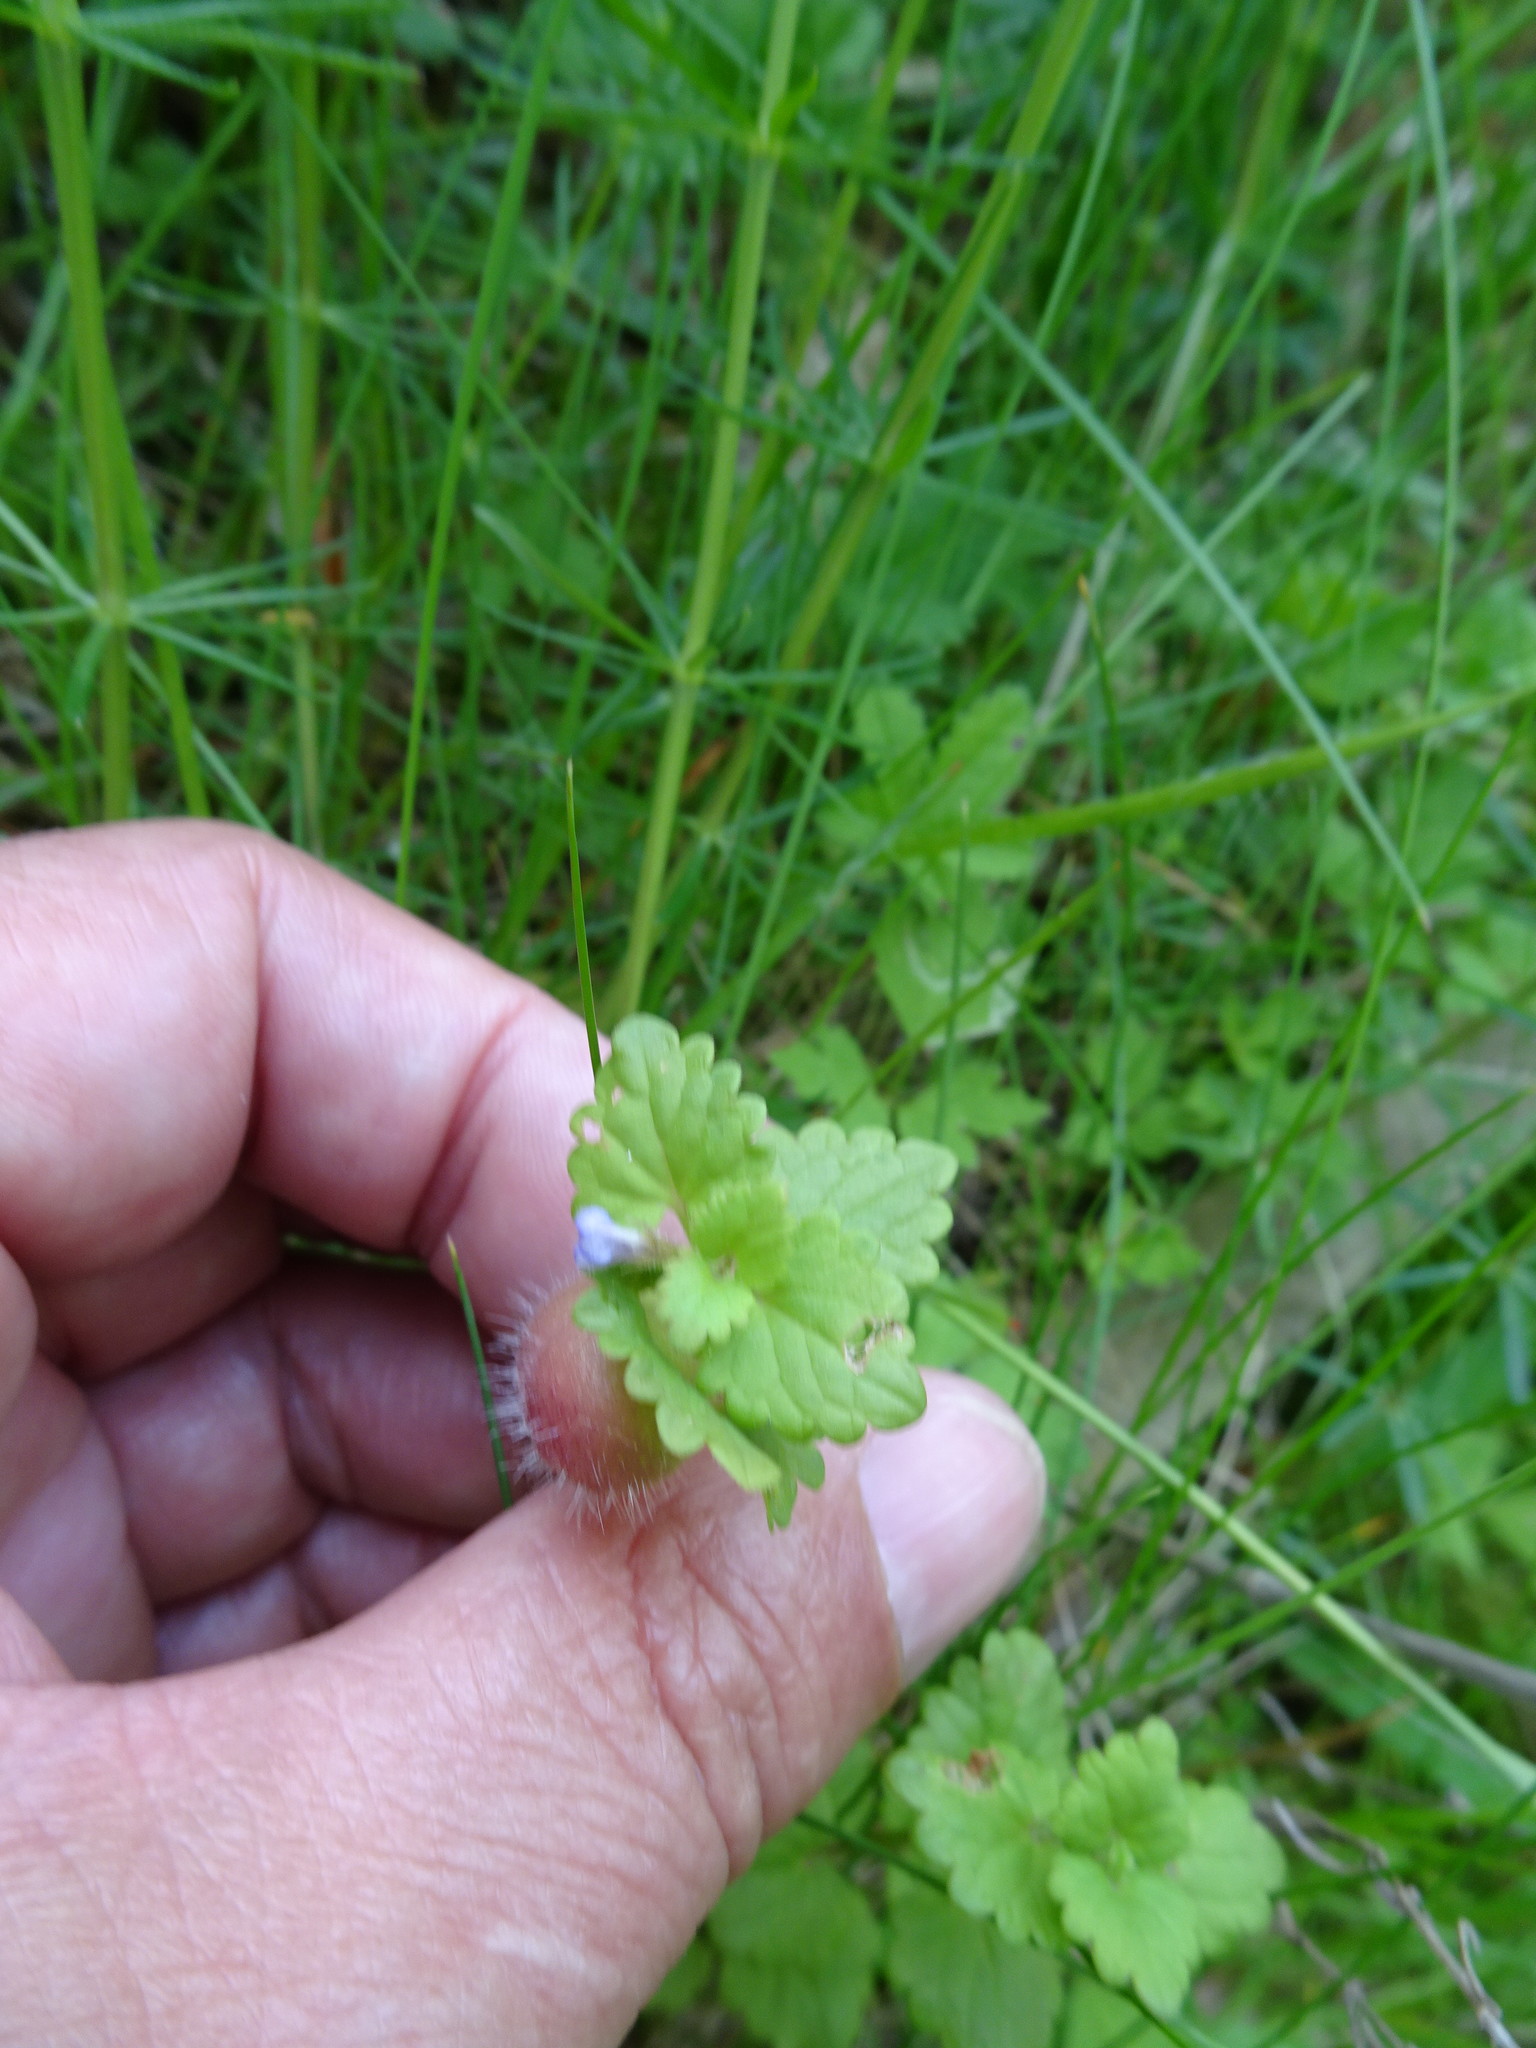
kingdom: Plantae
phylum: Tracheophyta
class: Magnoliopsida
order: Lamiales
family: Lamiaceae
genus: Glechoma
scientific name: Glechoma hederacea
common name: Ground ivy
